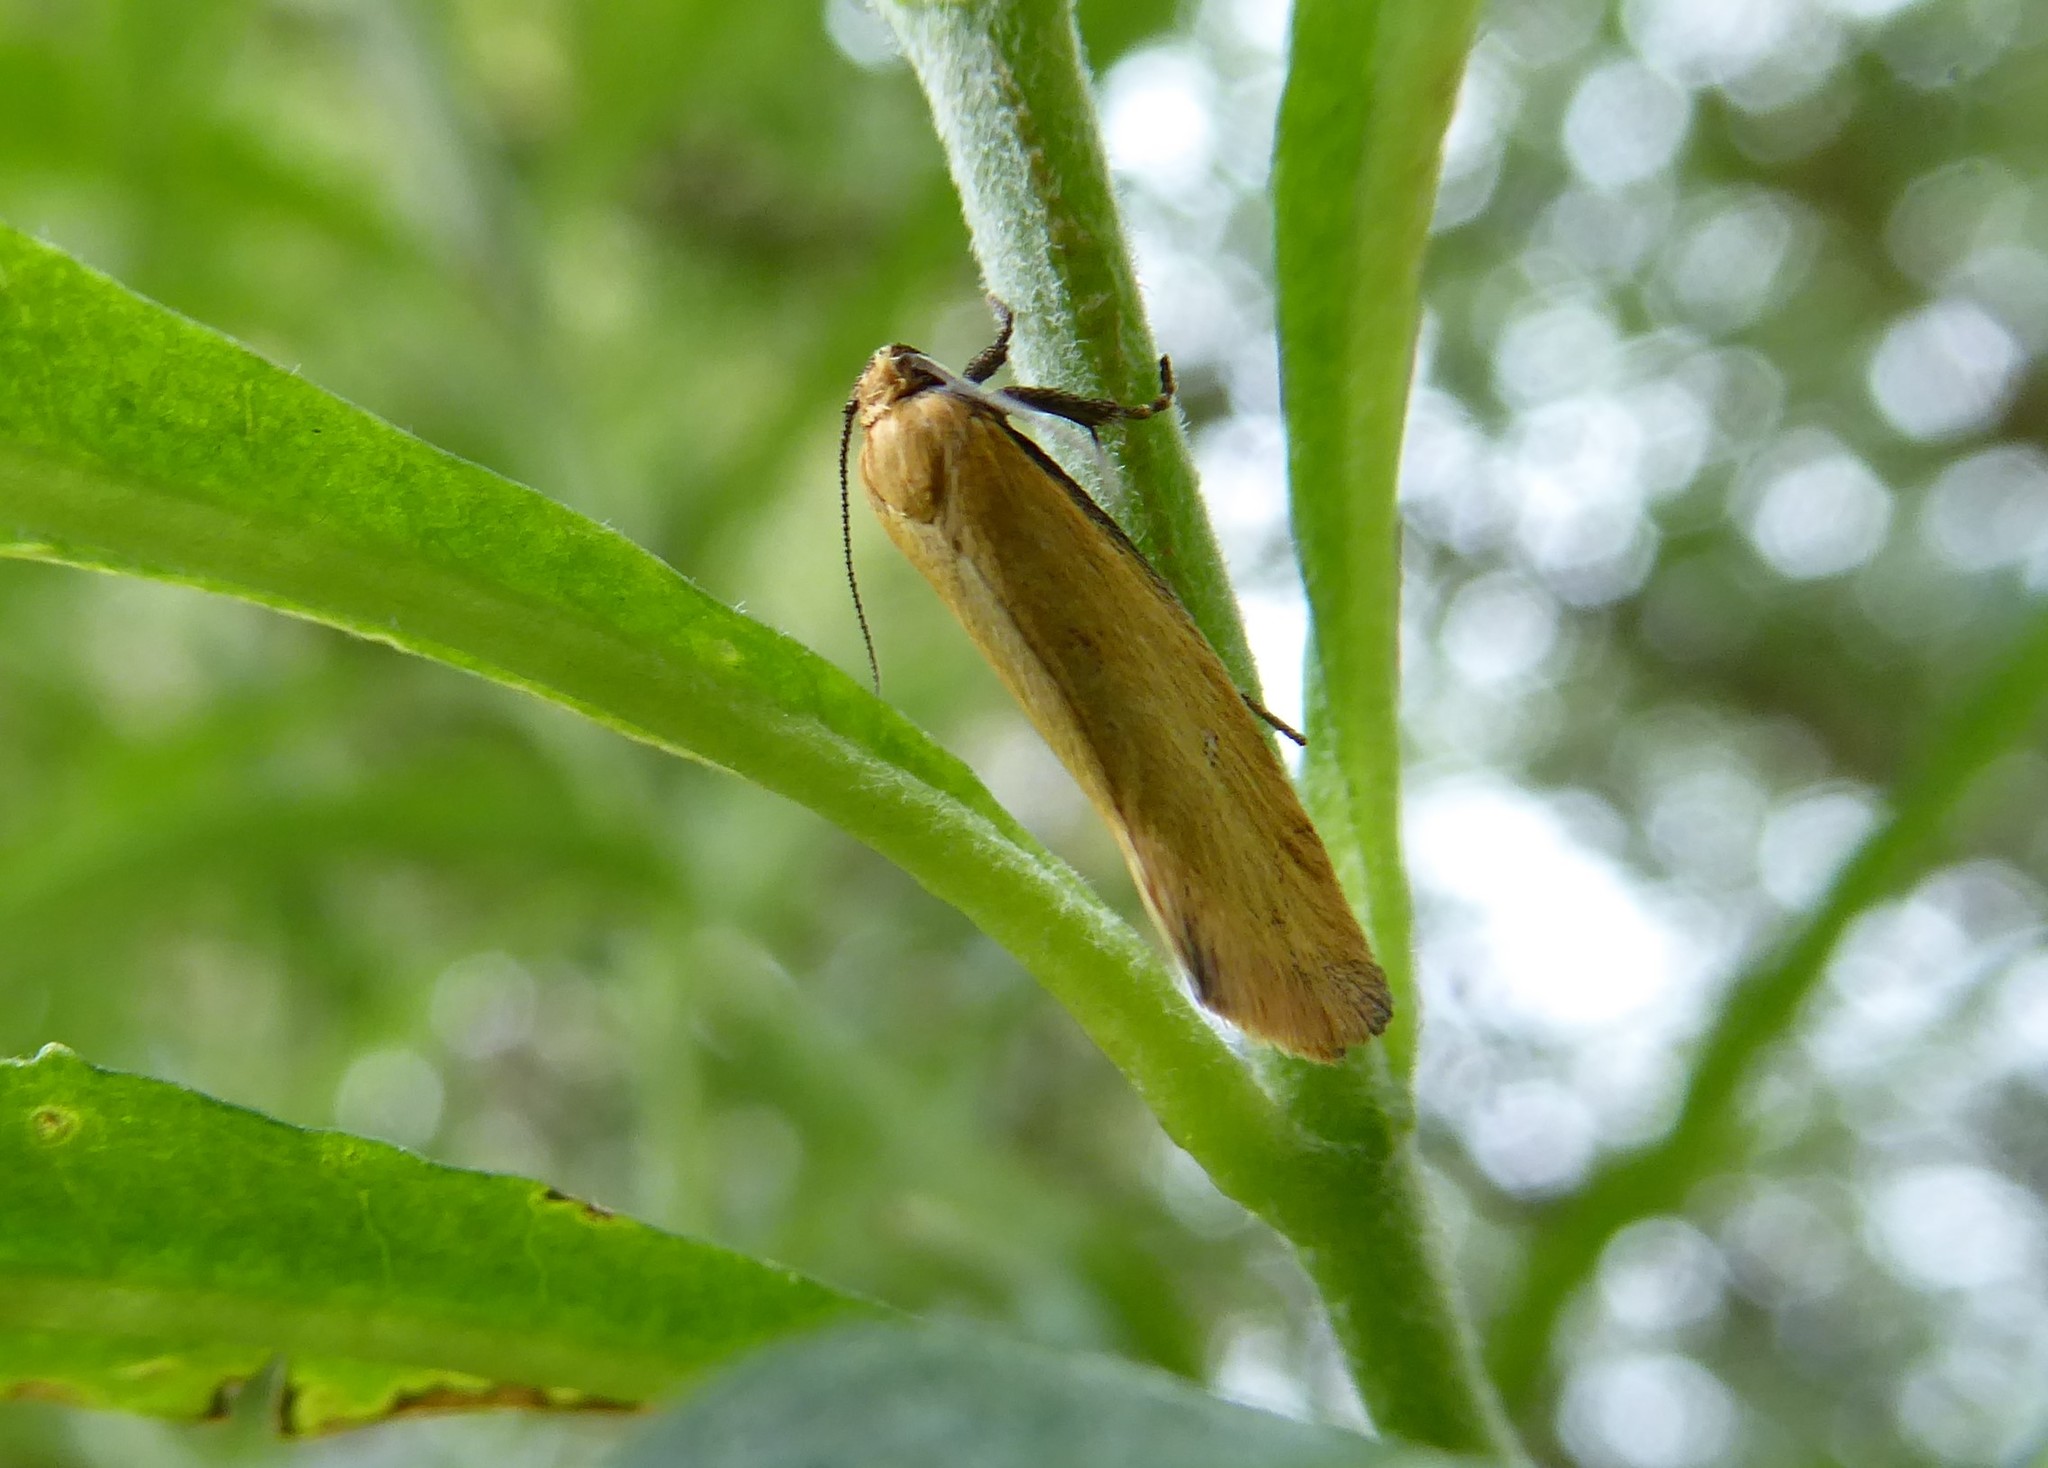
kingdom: Animalia
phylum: Arthropoda
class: Insecta
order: Lepidoptera
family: Oecophoridae
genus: Tingena
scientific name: Tingena actinias
